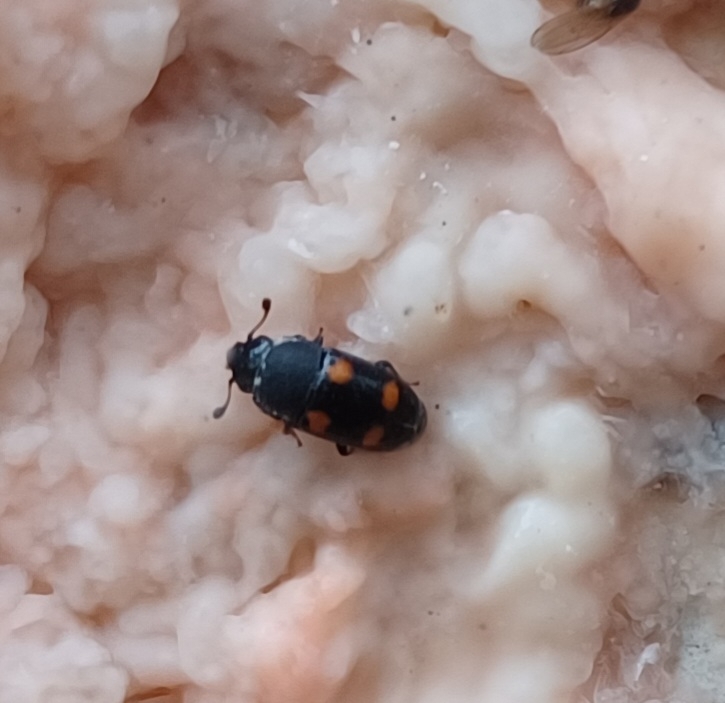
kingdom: Animalia
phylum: Arthropoda
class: Insecta
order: Coleoptera
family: Nitidulidae
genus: Glischrochilus
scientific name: Glischrochilus hortensis
